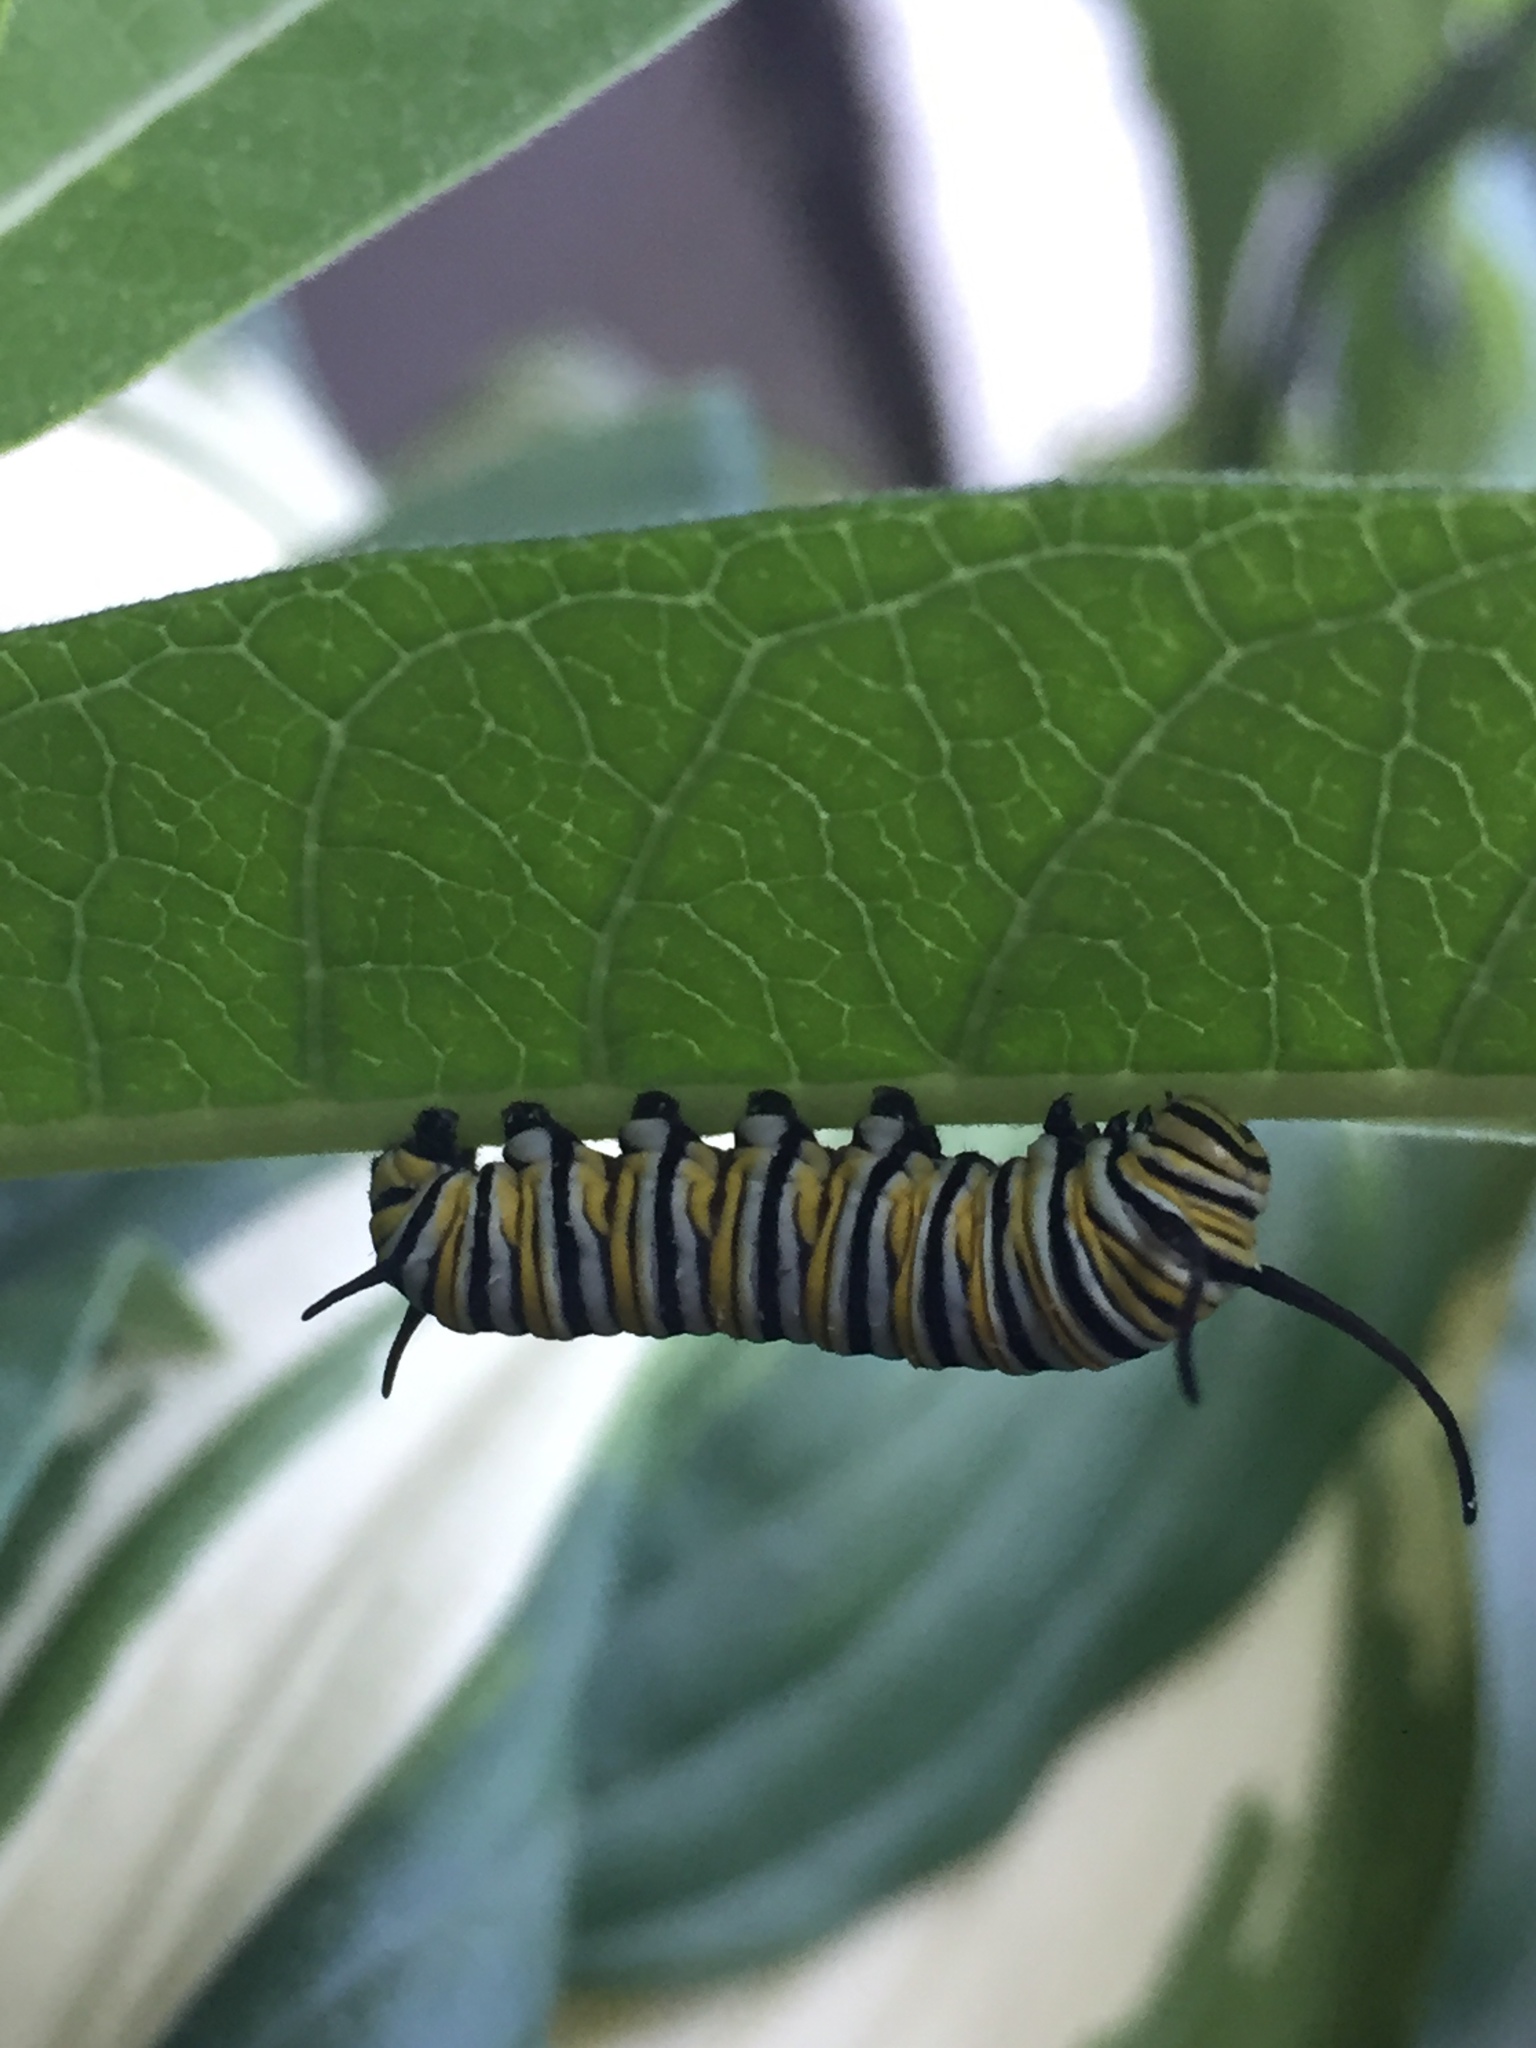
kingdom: Animalia
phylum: Arthropoda
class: Insecta
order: Lepidoptera
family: Nymphalidae
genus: Danaus
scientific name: Danaus plexippus
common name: Monarch
